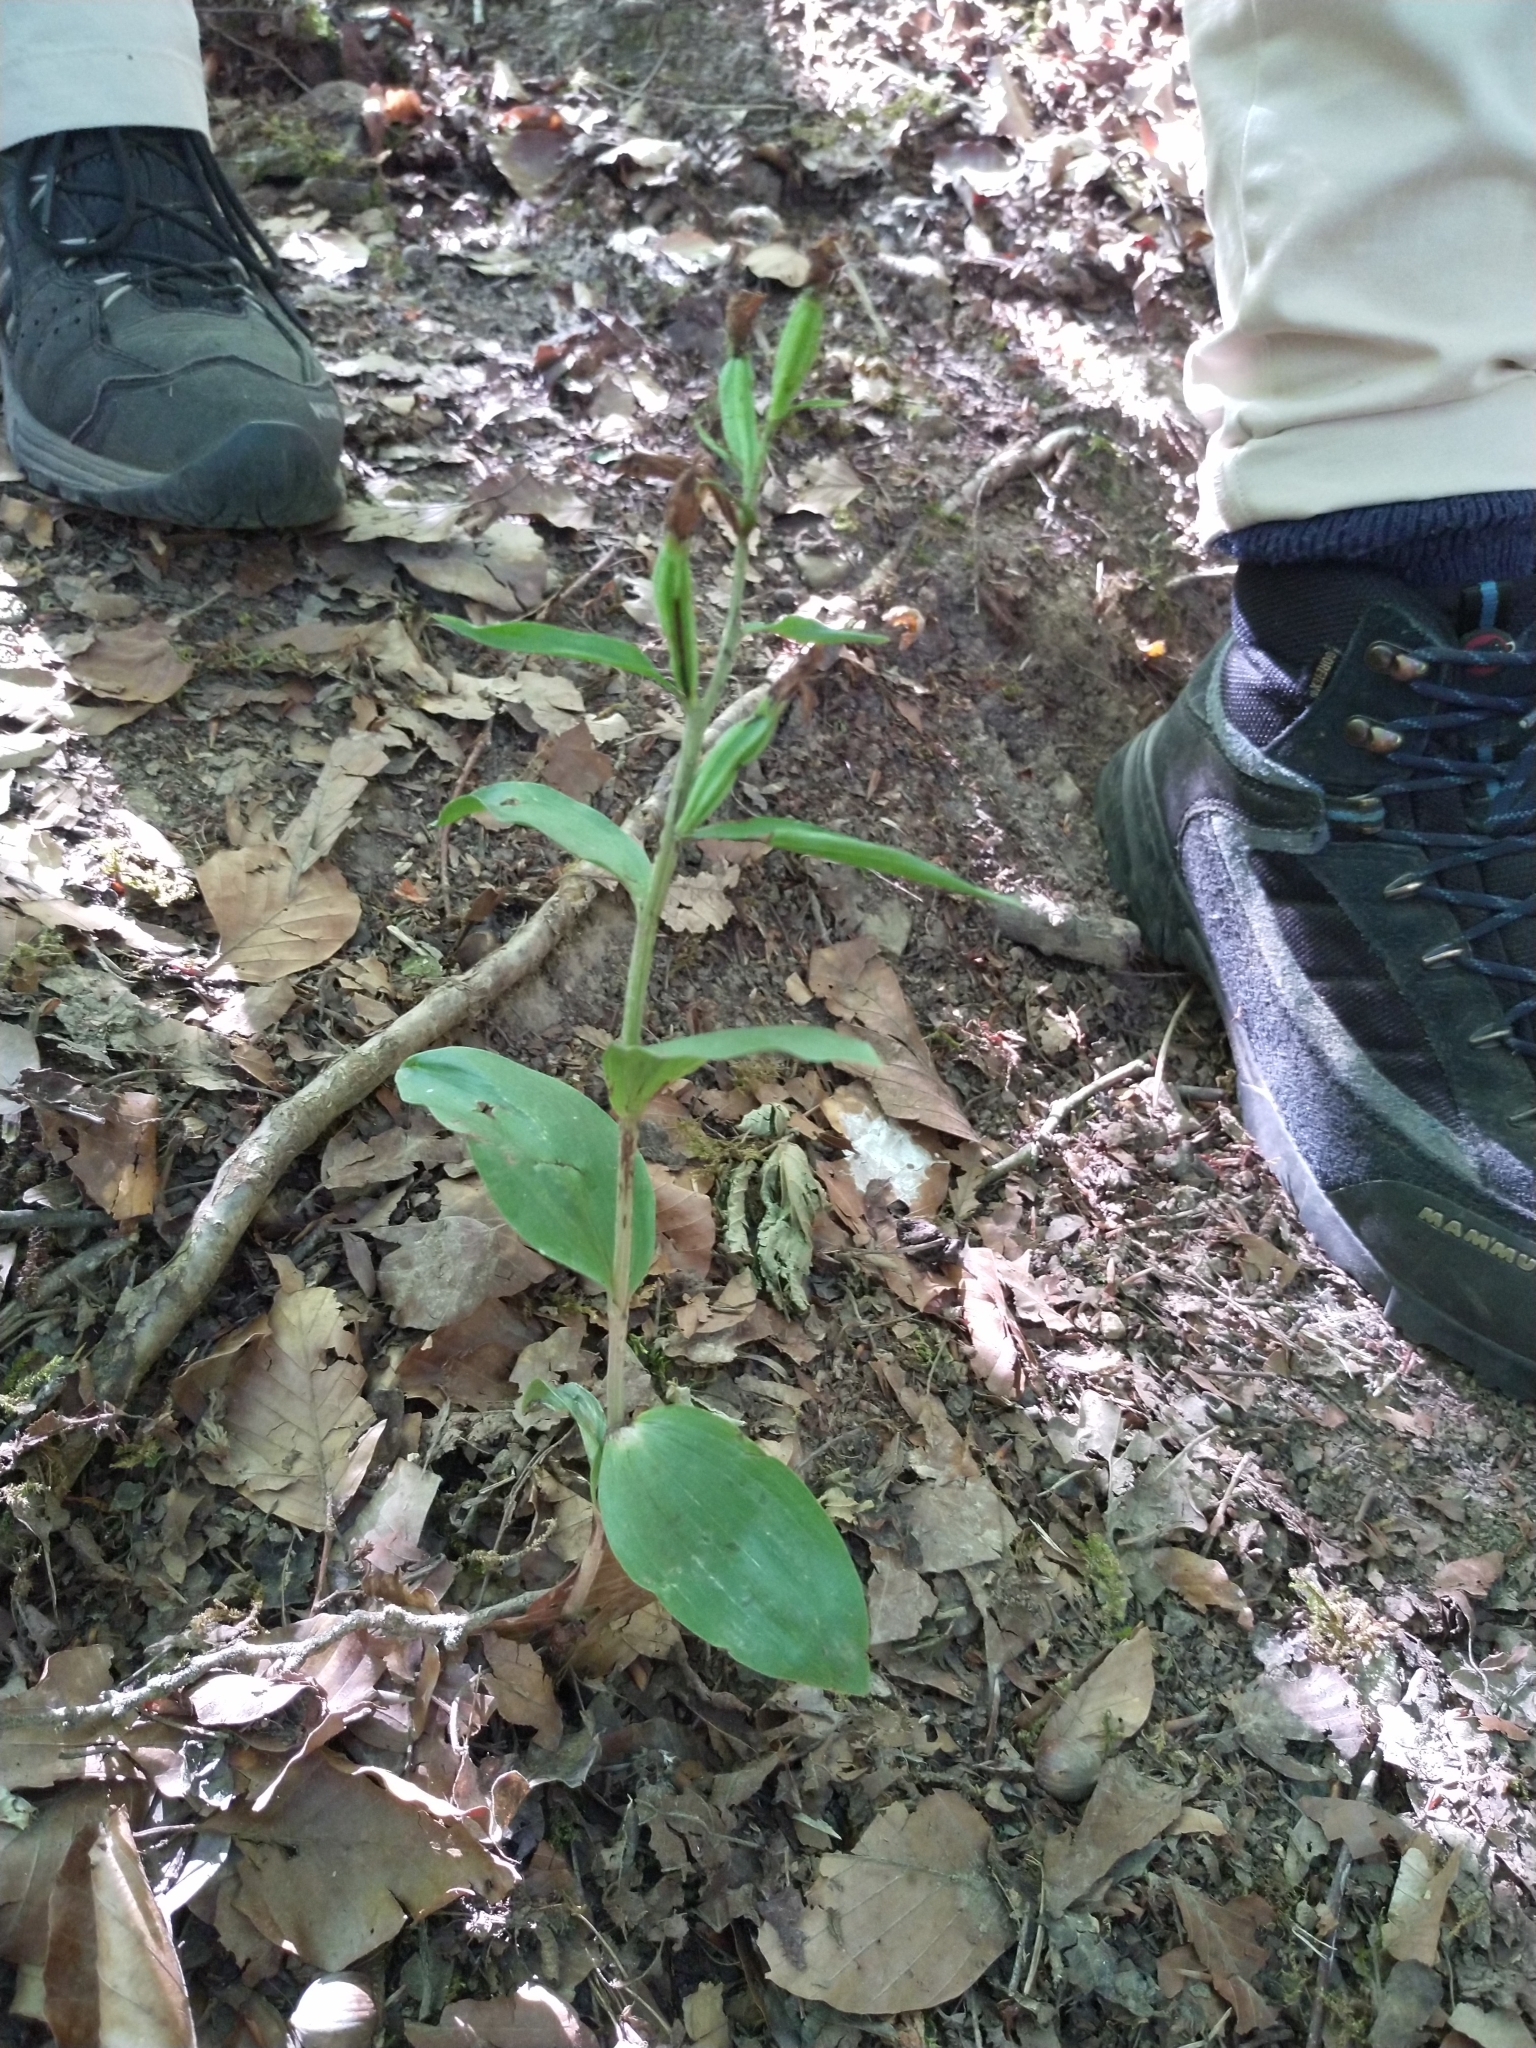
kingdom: Plantae
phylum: Tracheophyta
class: Liliopsida
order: Asparagales
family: Orchidaceae
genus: Cephalanthera
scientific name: Cephalanthera damasonium
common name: White helleborine
